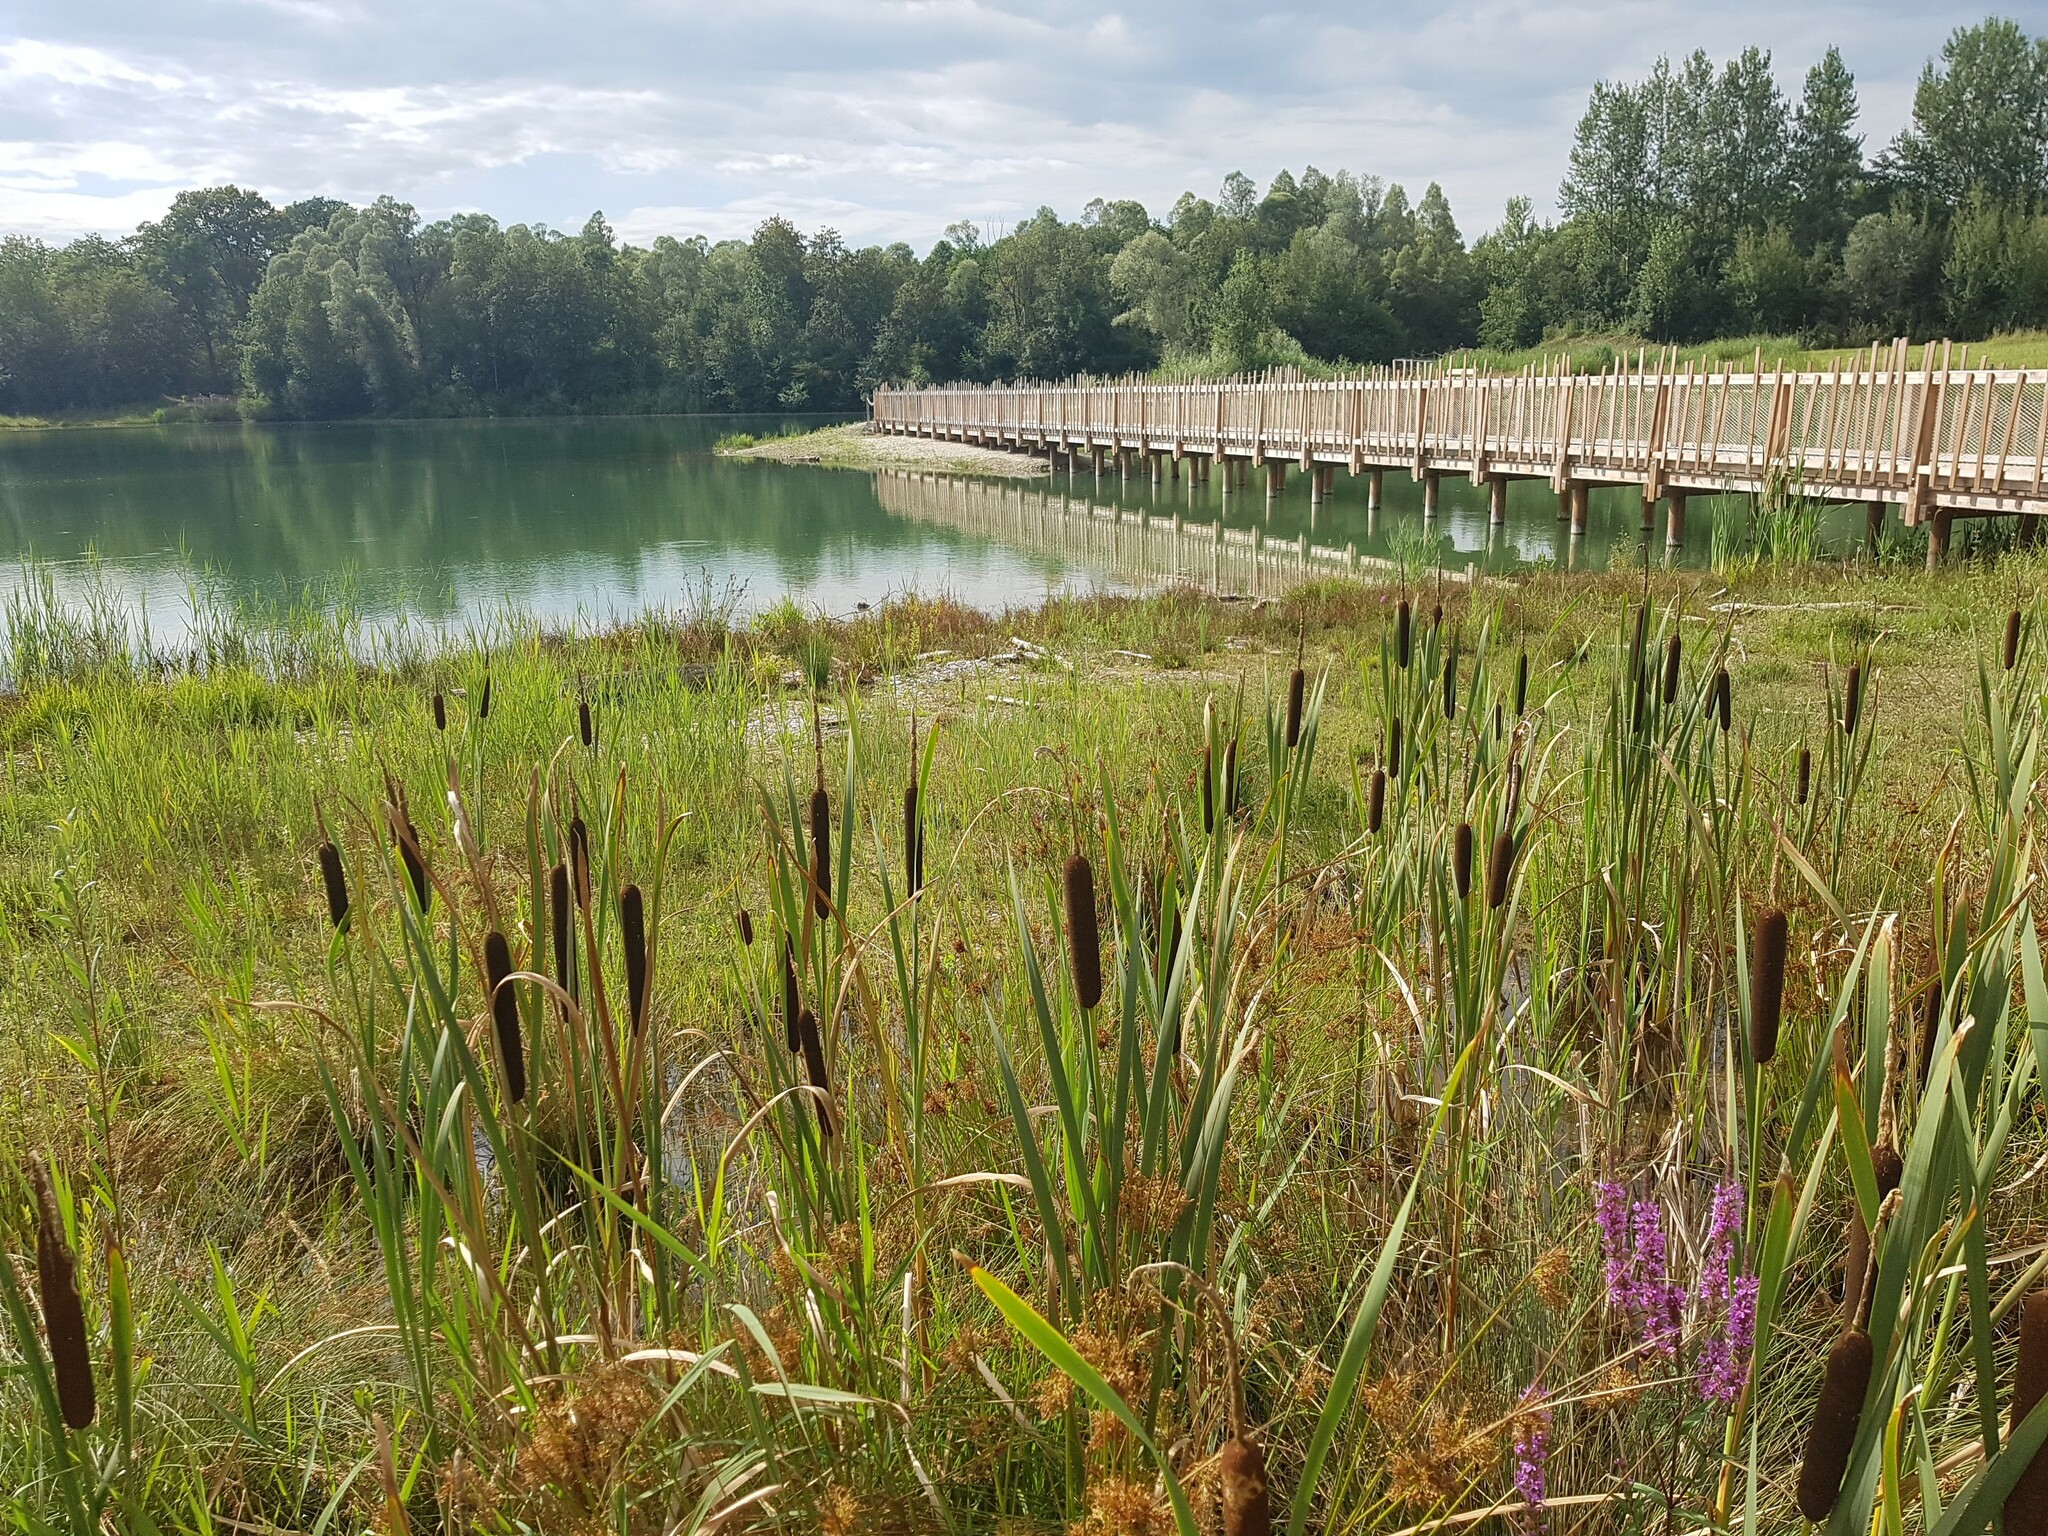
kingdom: Plantae
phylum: Tracheophyta
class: Liliopsida
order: Poales
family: Typhaceae
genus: Typha
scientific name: Typha latifolia
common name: Broadleaf cattail
